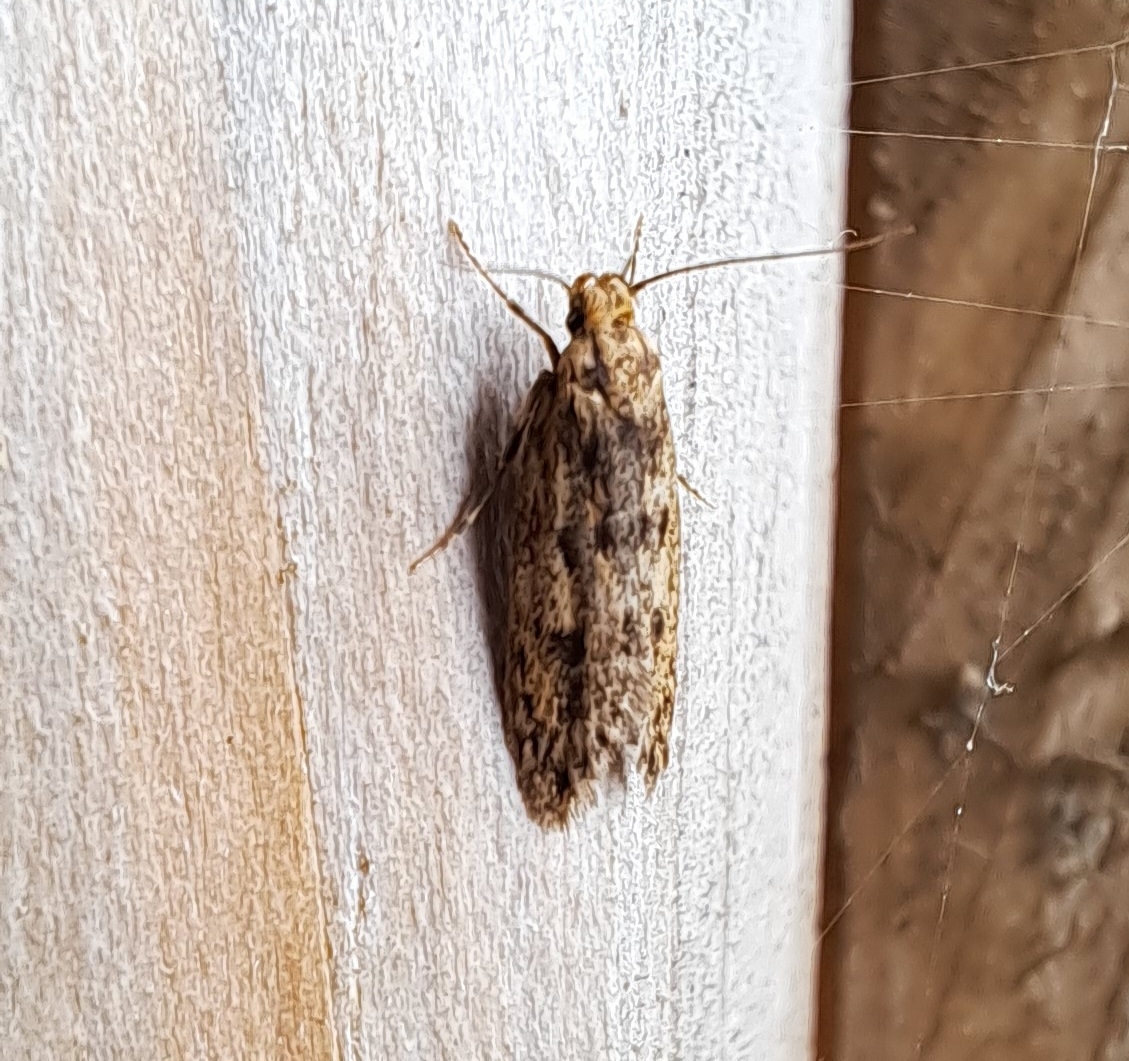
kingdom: Animalia
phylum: Arthropoda
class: Insecta
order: Lepidoptera
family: Oecophoridae
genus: Hofmannophila
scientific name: Hofmannophila pseudospretella
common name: Brown house moth
